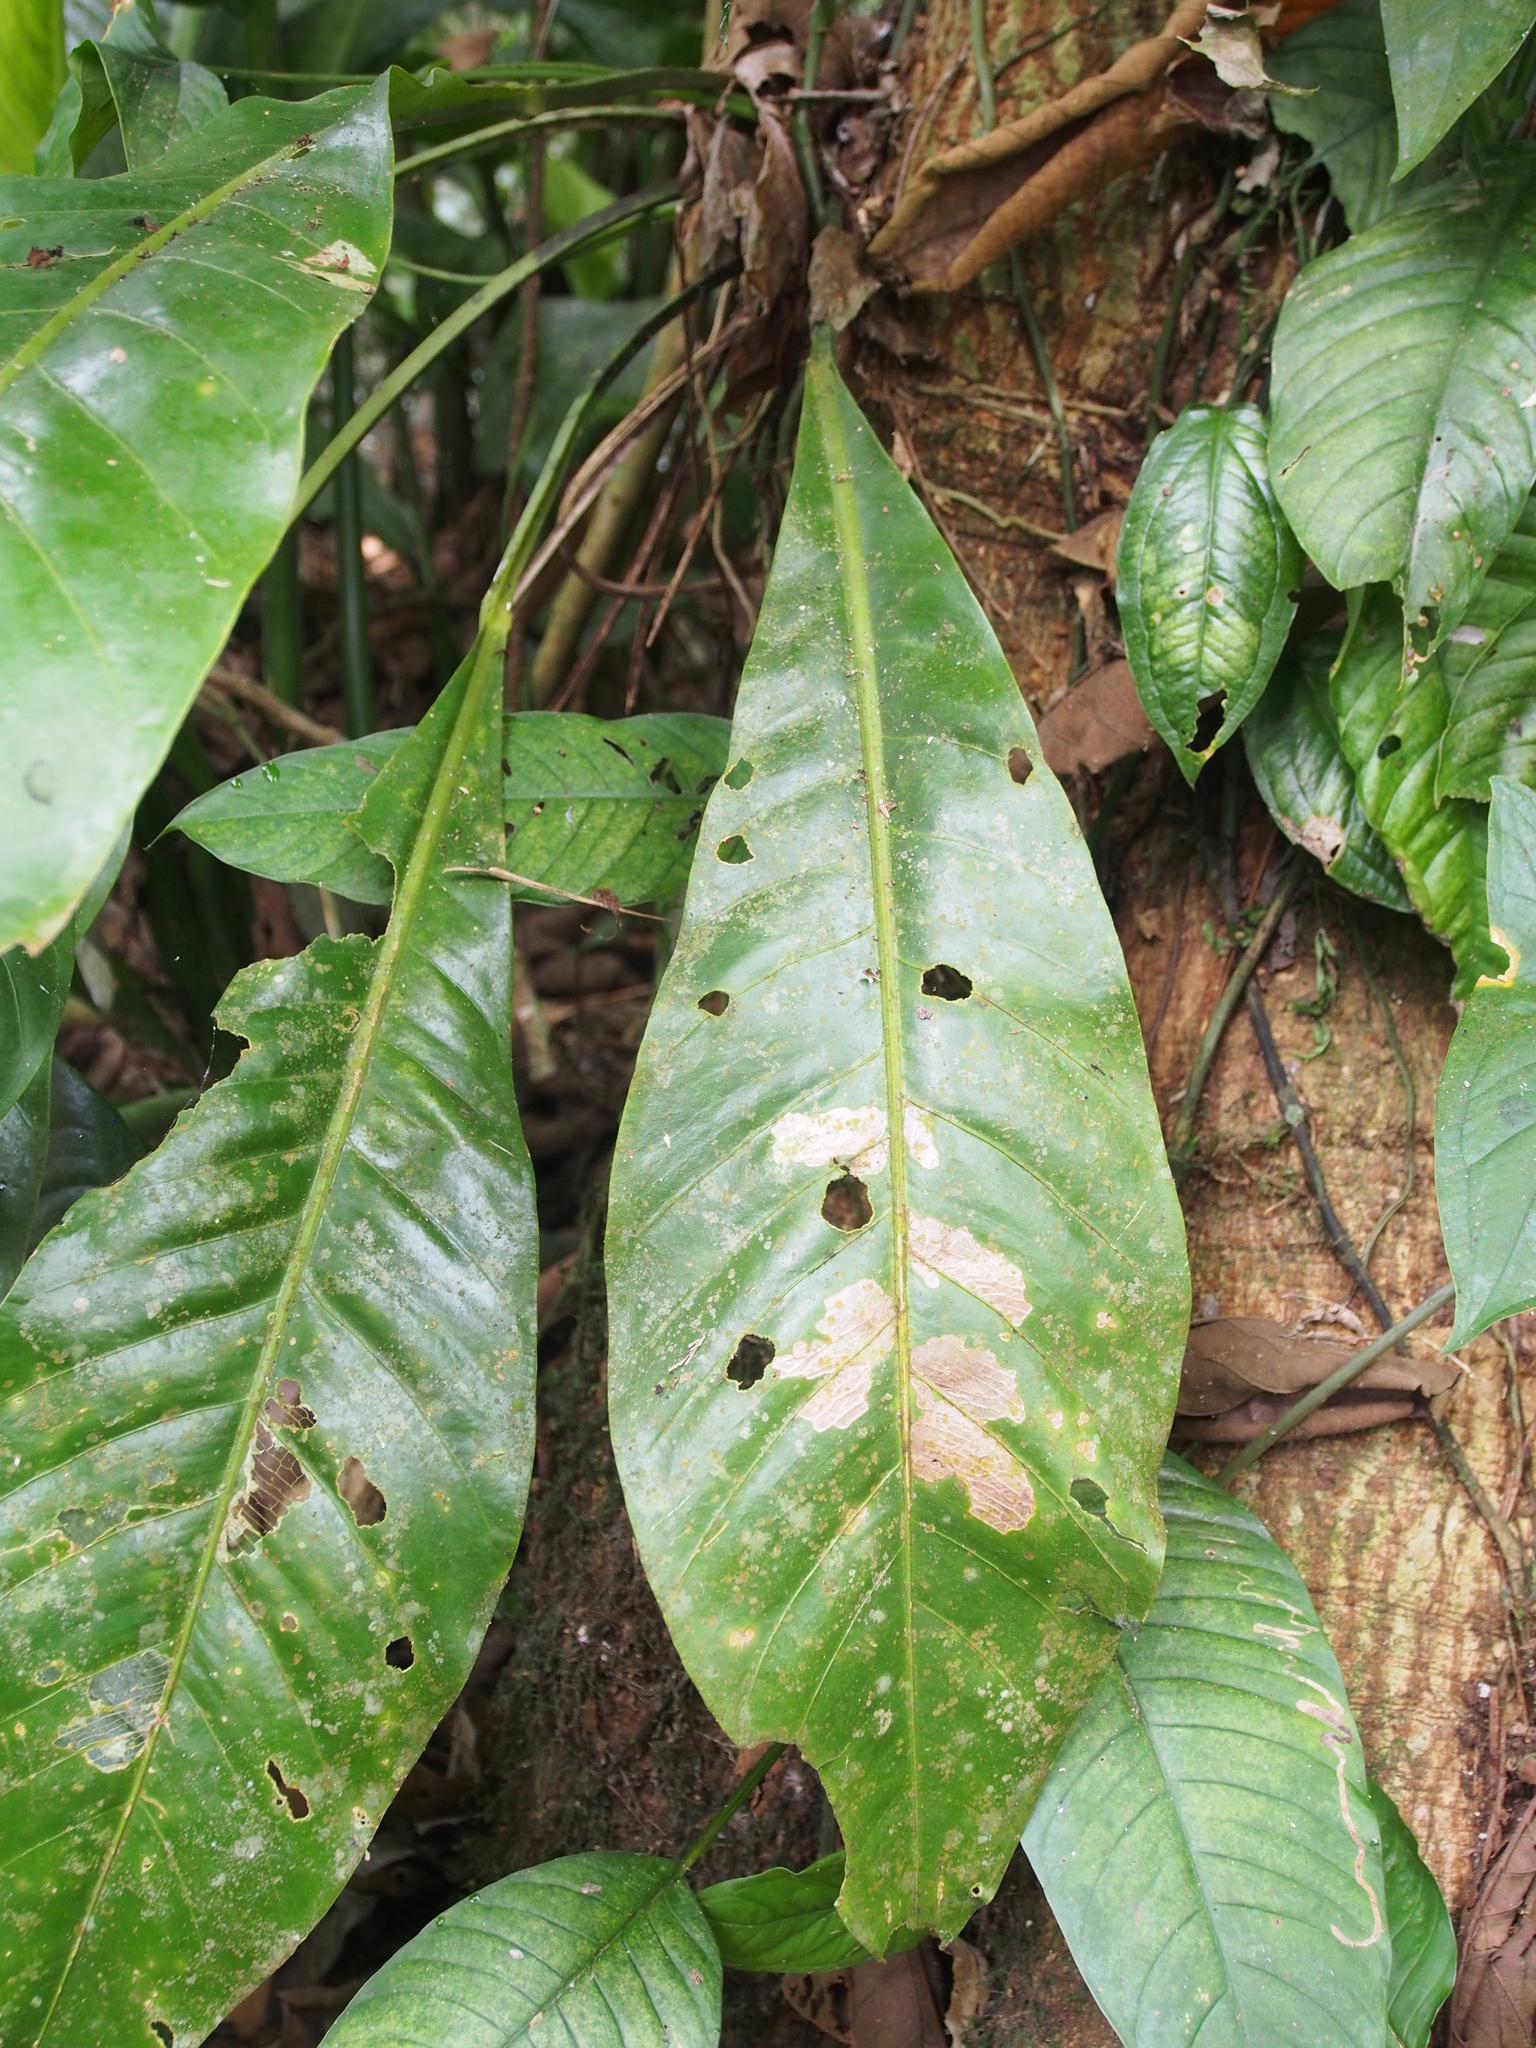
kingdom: Plantae
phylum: Tracheophyta
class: Liliopsida
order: Alismatales
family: Araceae
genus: Anthurium
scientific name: Anthurium upalaense
